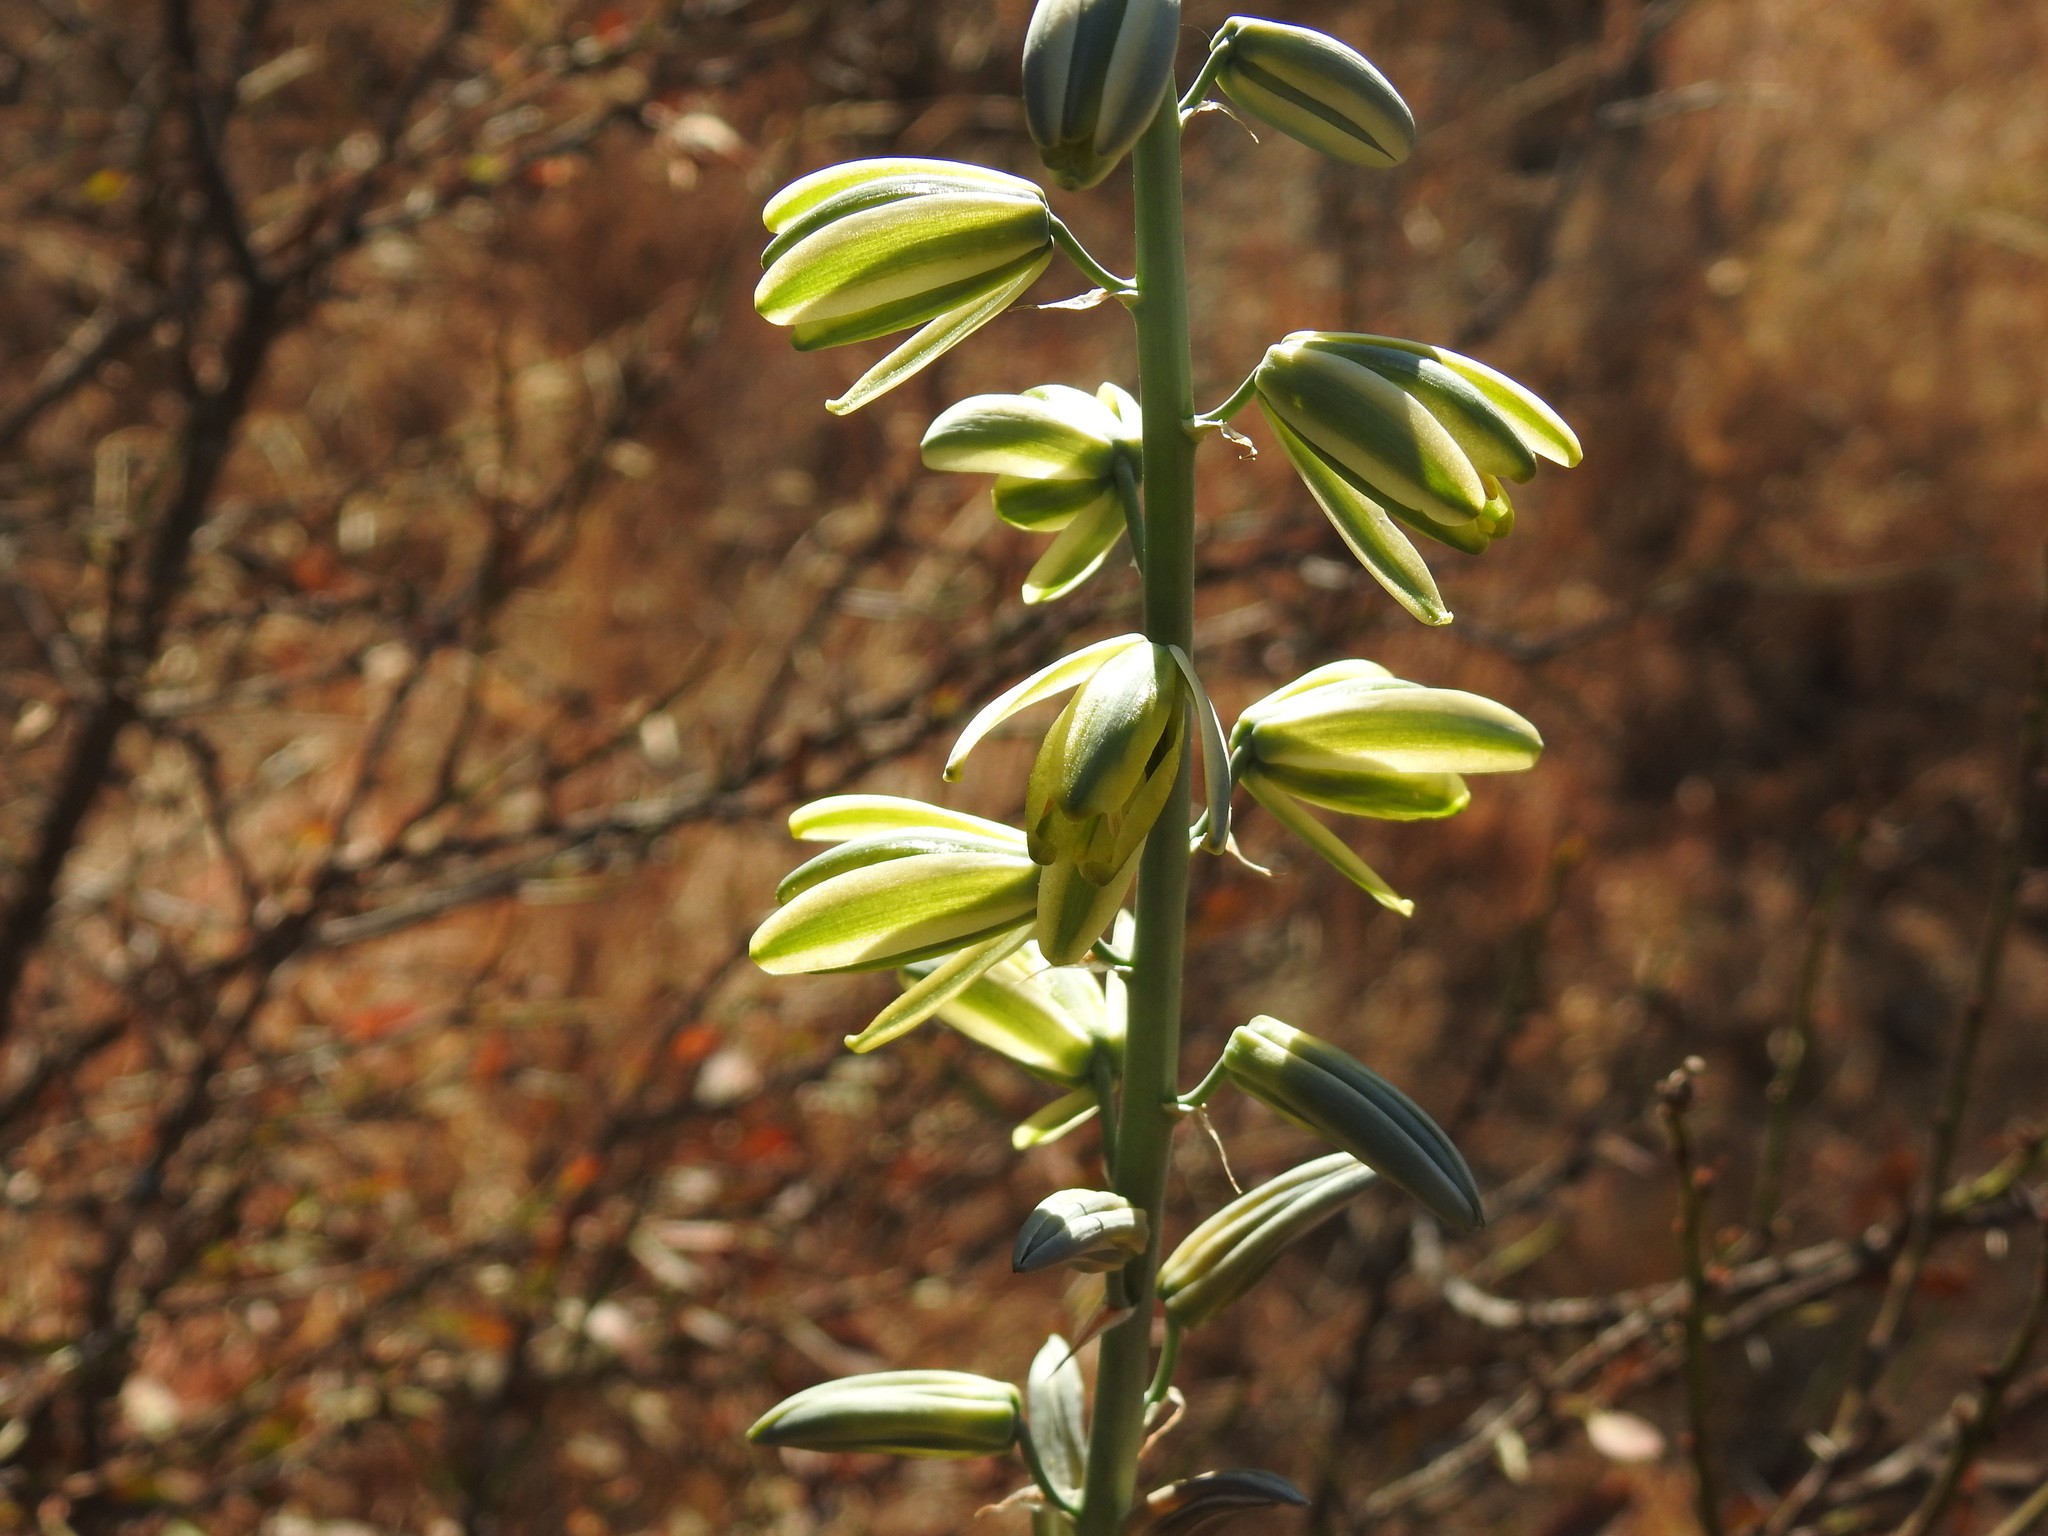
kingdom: Plantae
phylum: Tracheophyta
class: Liliopsida
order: Asparagales
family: Asparagaceae
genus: Albuca
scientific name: Albuca glauca
